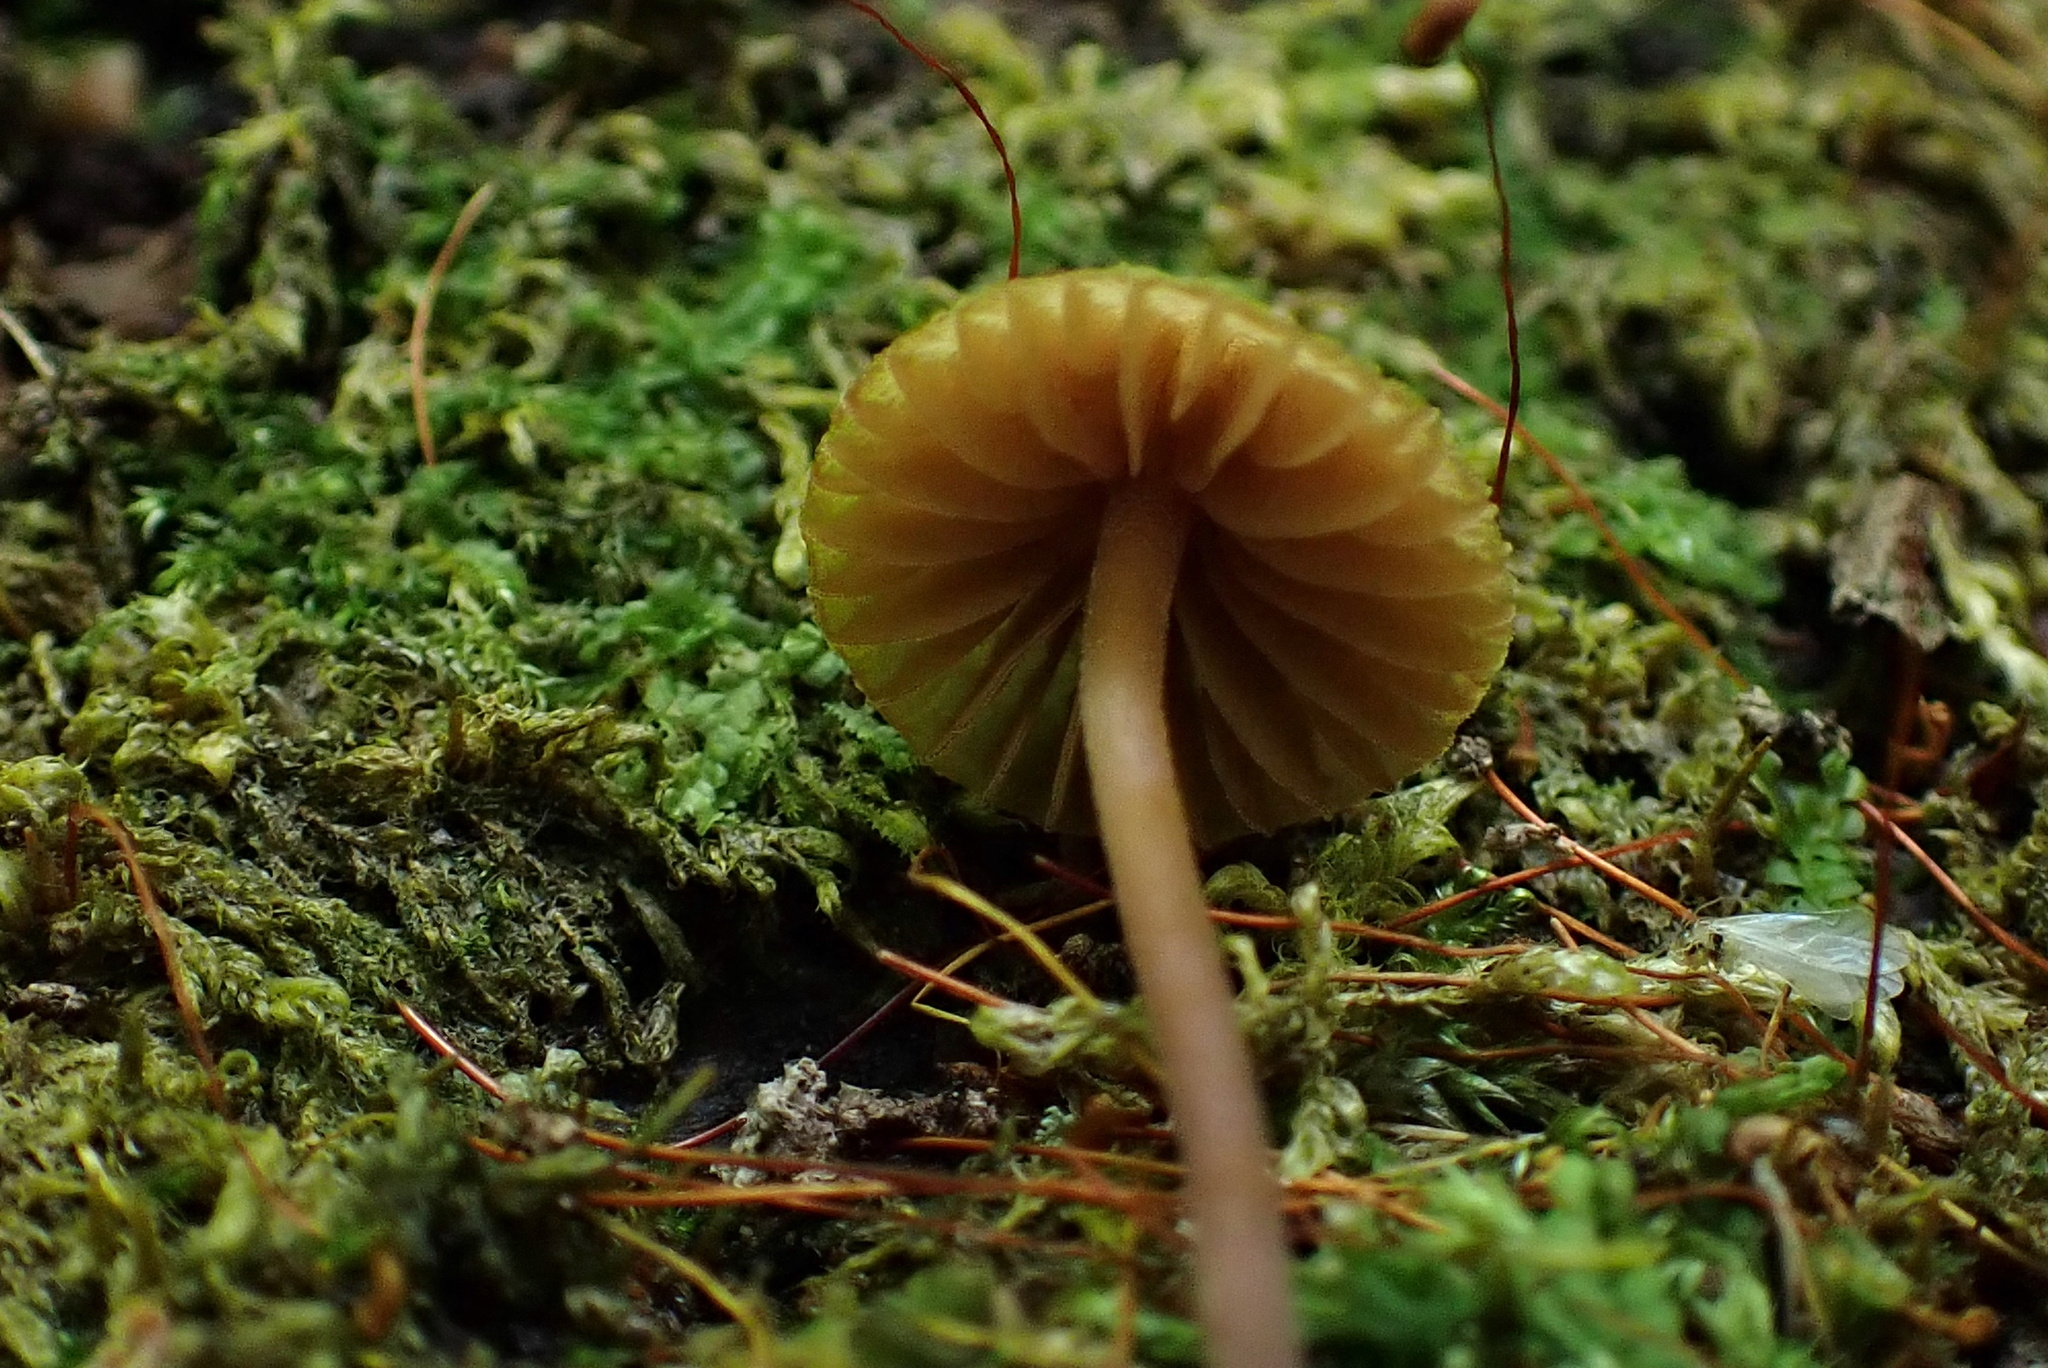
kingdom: Fungi
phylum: Basidiomycota
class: Agaricomycetes
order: Agaricales
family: Hymenogastraceae
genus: Galerina
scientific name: Galerina hypnorum
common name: Moss bell
